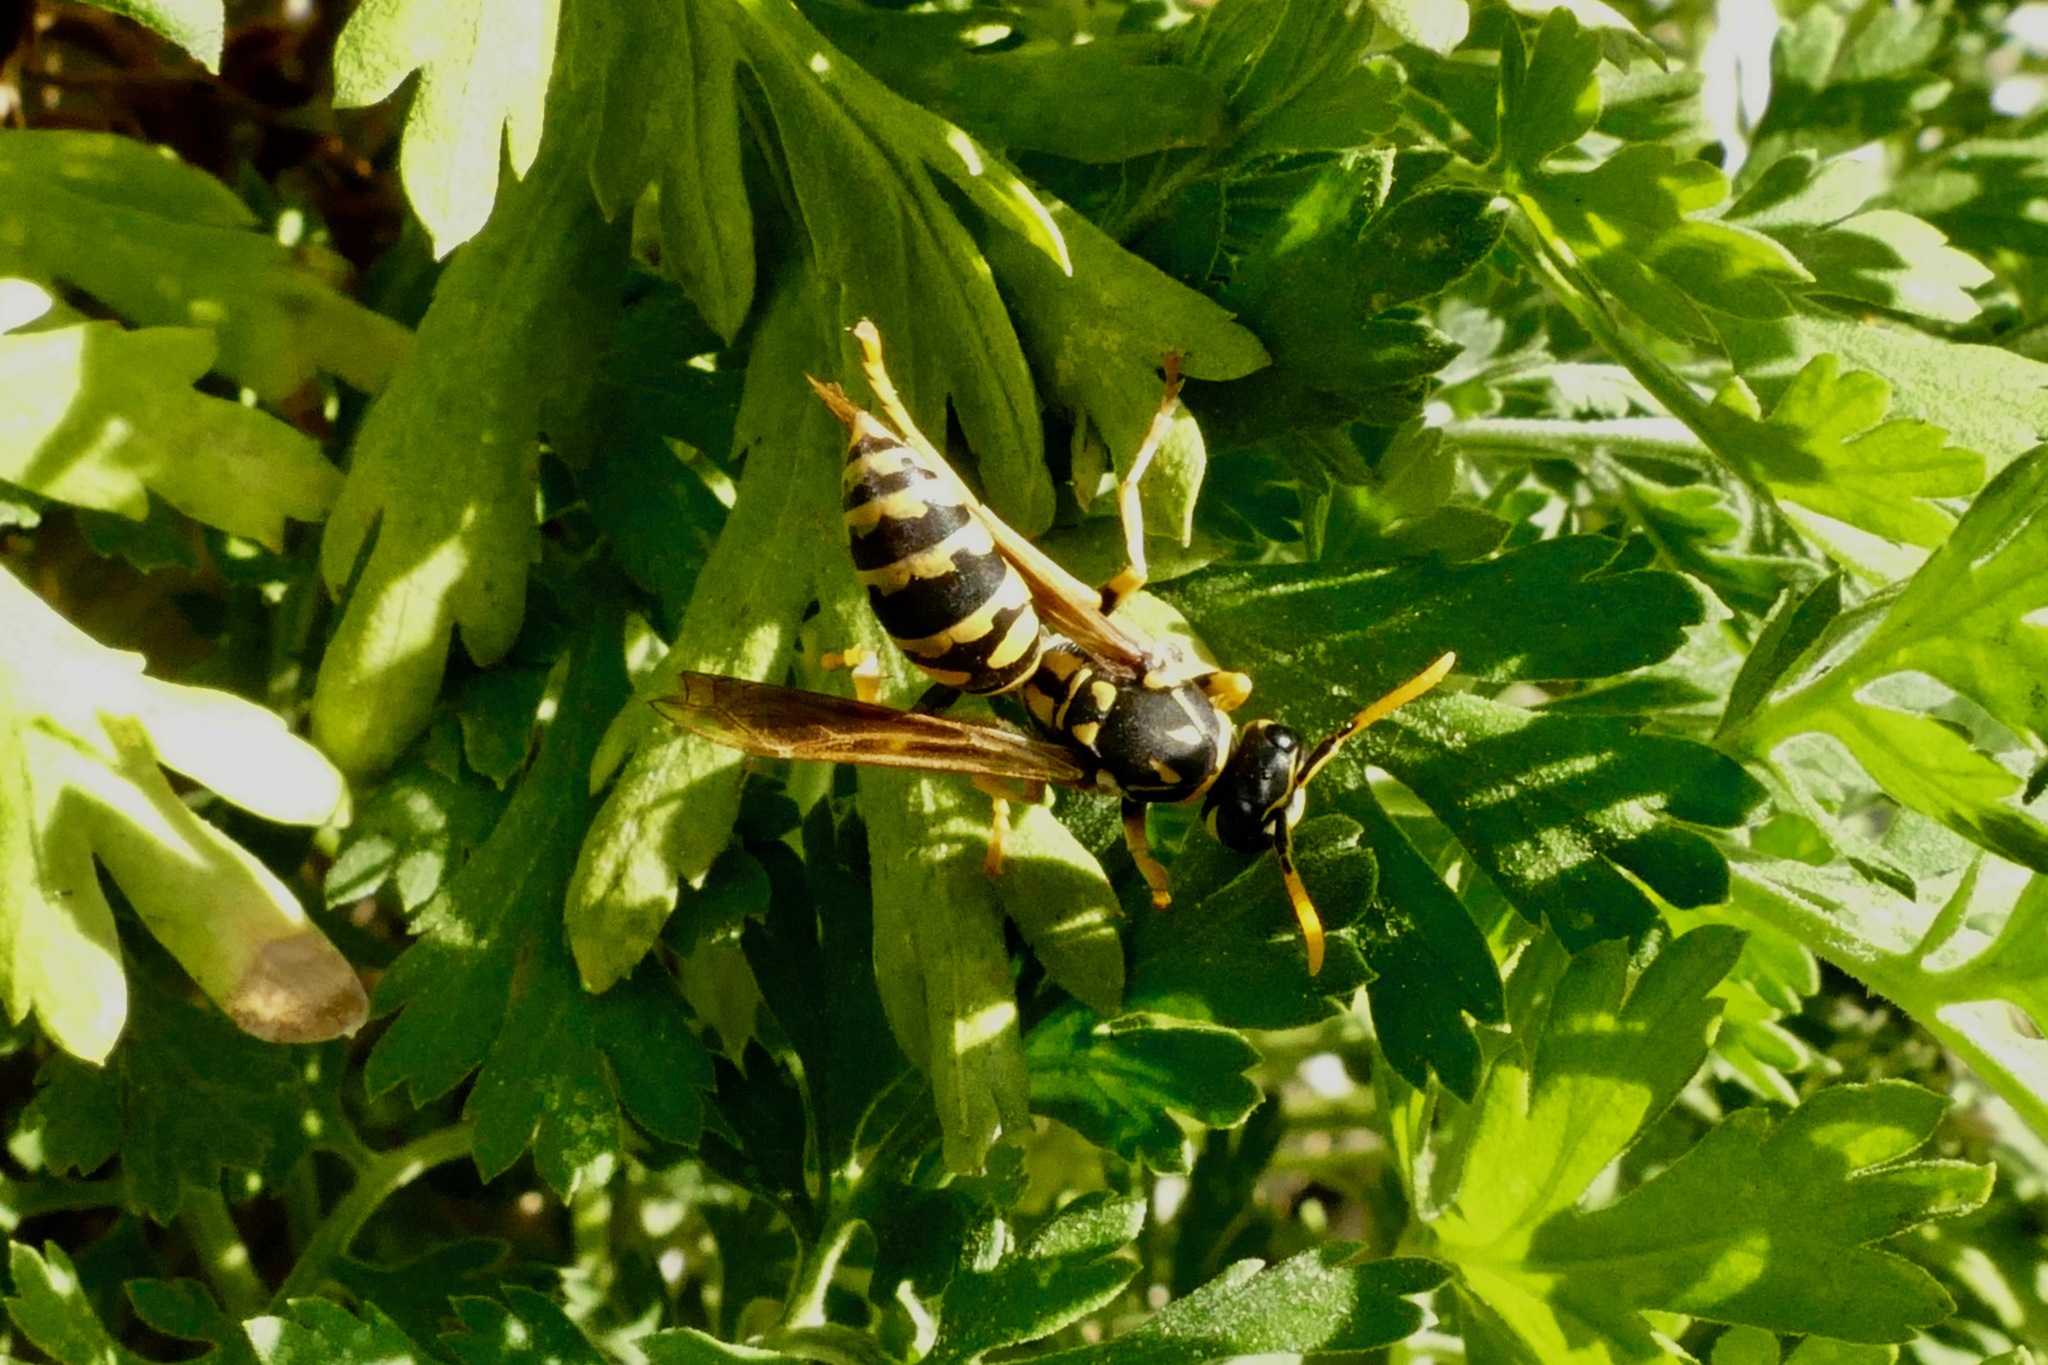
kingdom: Animalia
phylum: Arthropoda
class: Insecta
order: Hymenoptera
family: Eumenidae
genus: Polistes
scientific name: Polistes dominula
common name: Paper wasp
